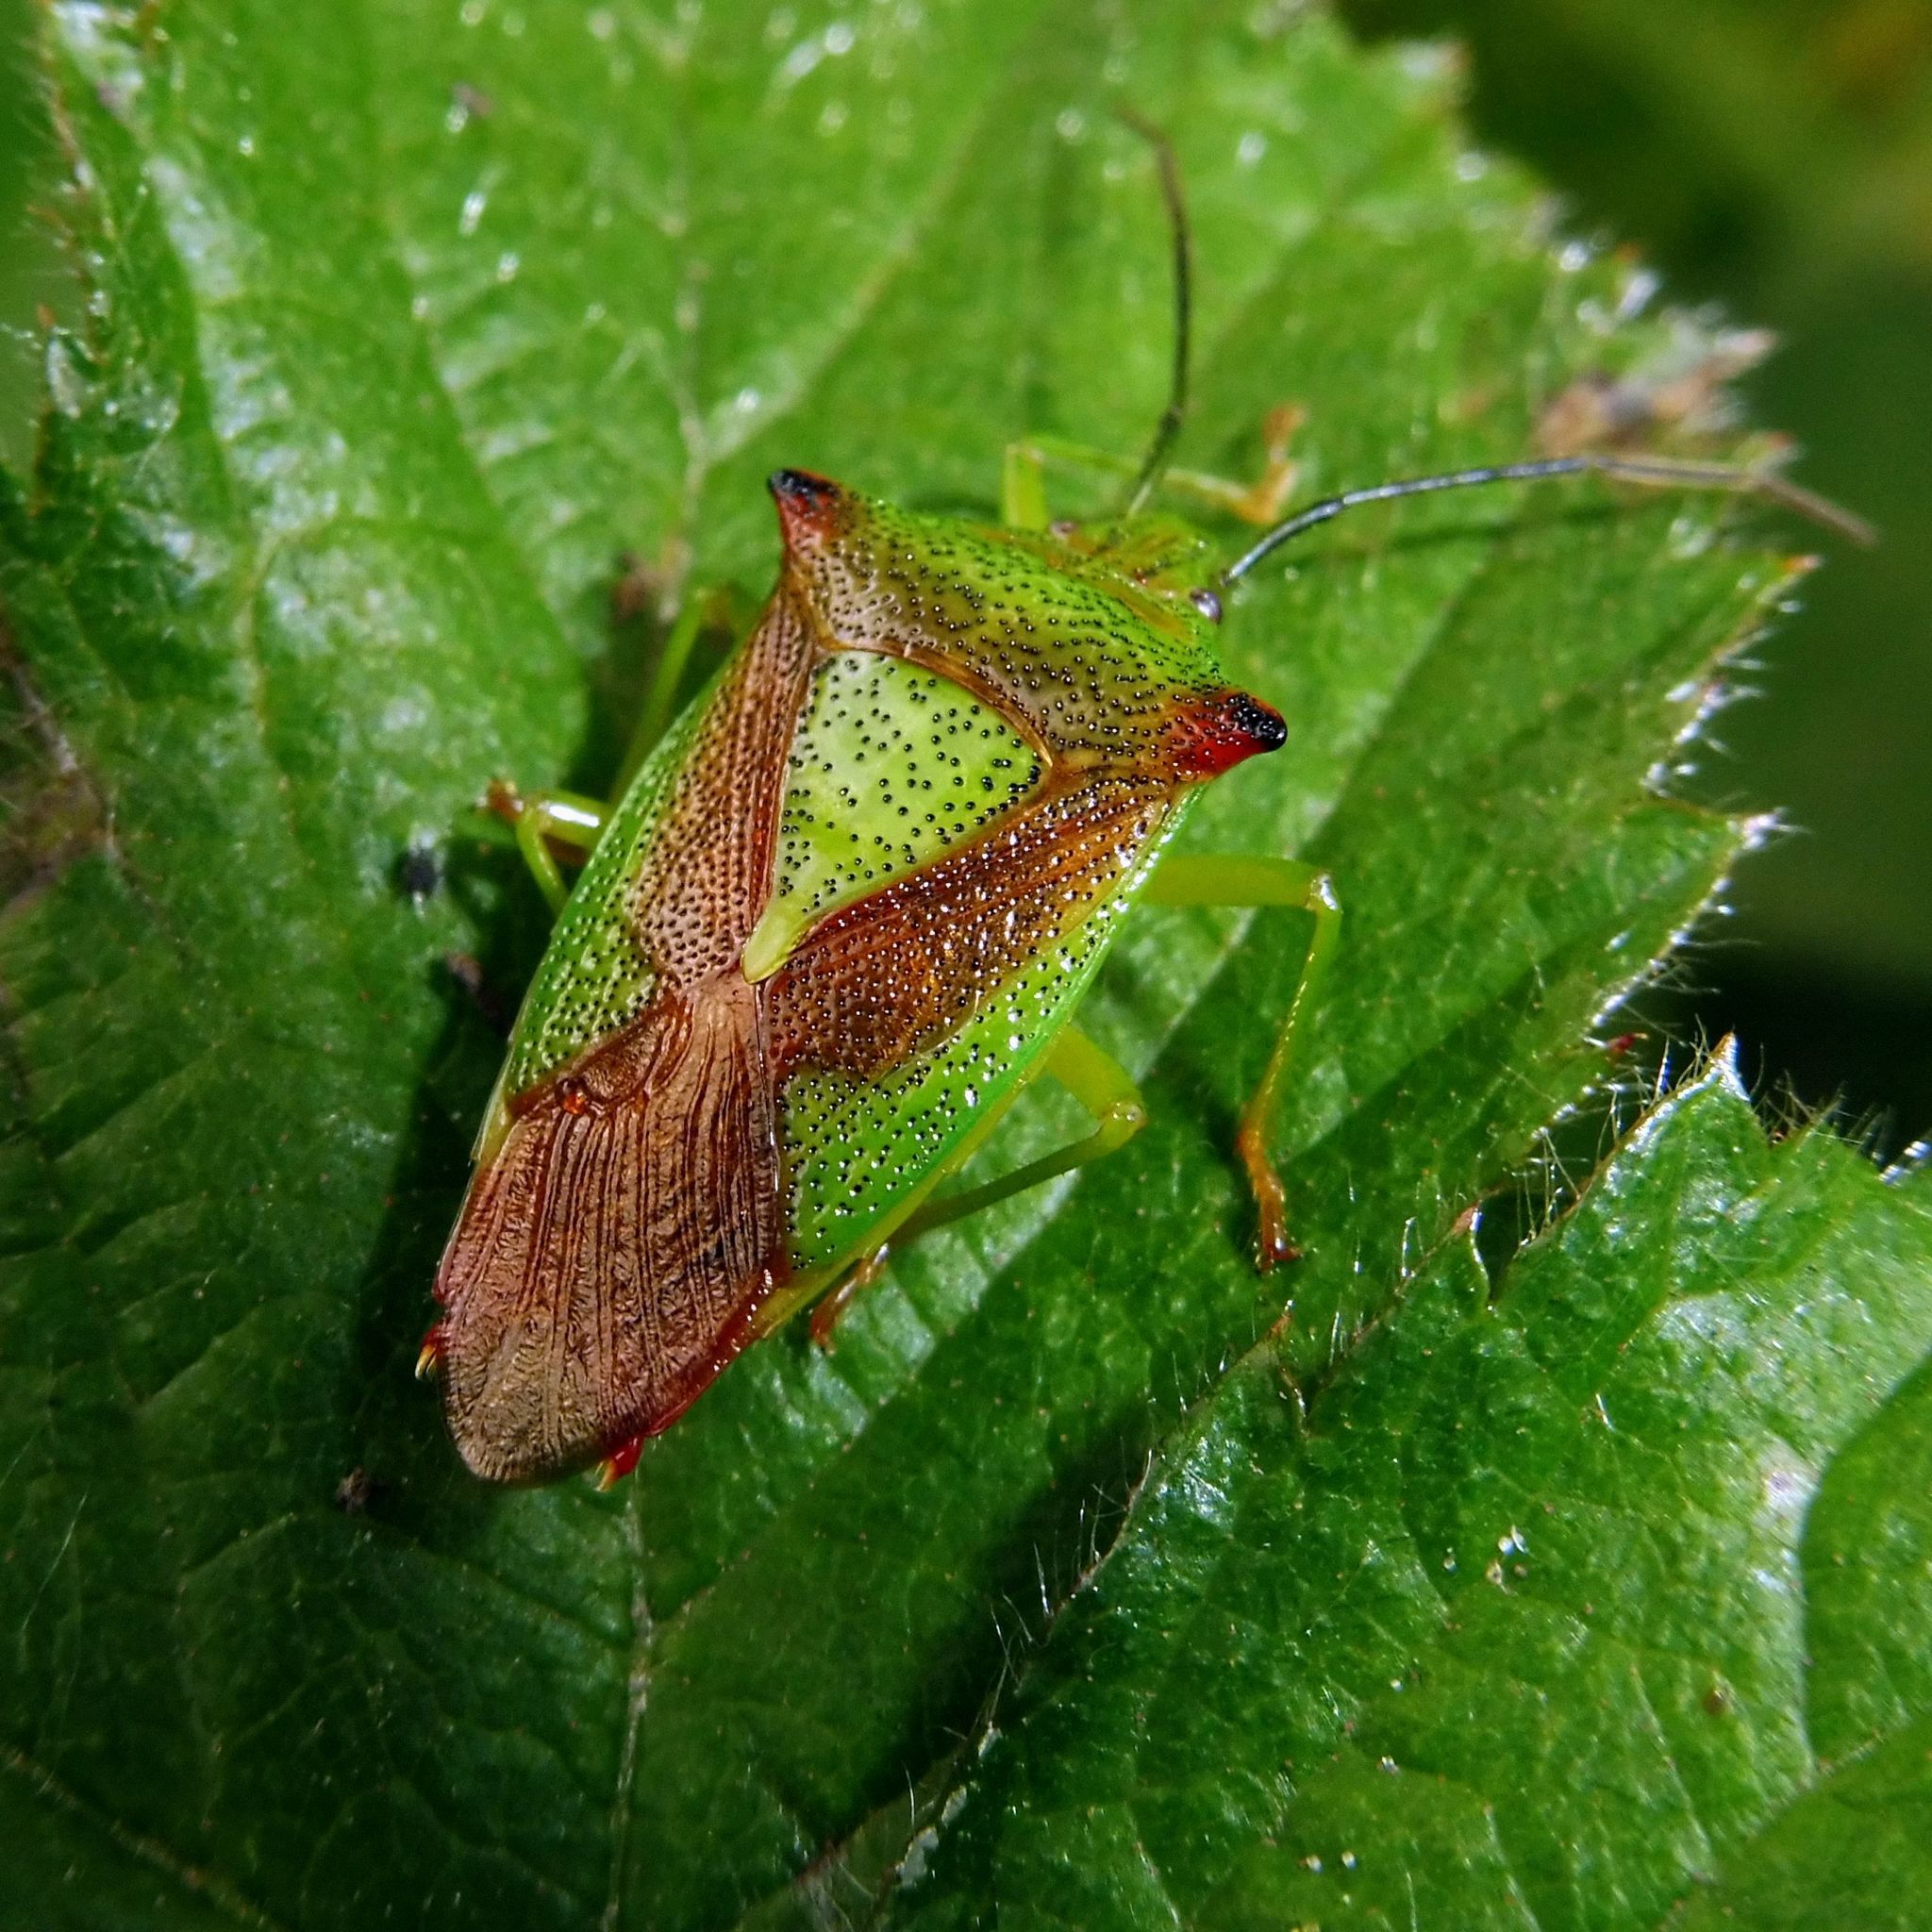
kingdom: Animalia
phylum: Arthropoda
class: Insecta
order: Hemiptera
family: Acanthosomatidae
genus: Acanthosoma
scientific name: Acanthosoma haemorrhoidale
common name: Hawthorn shieldbug
